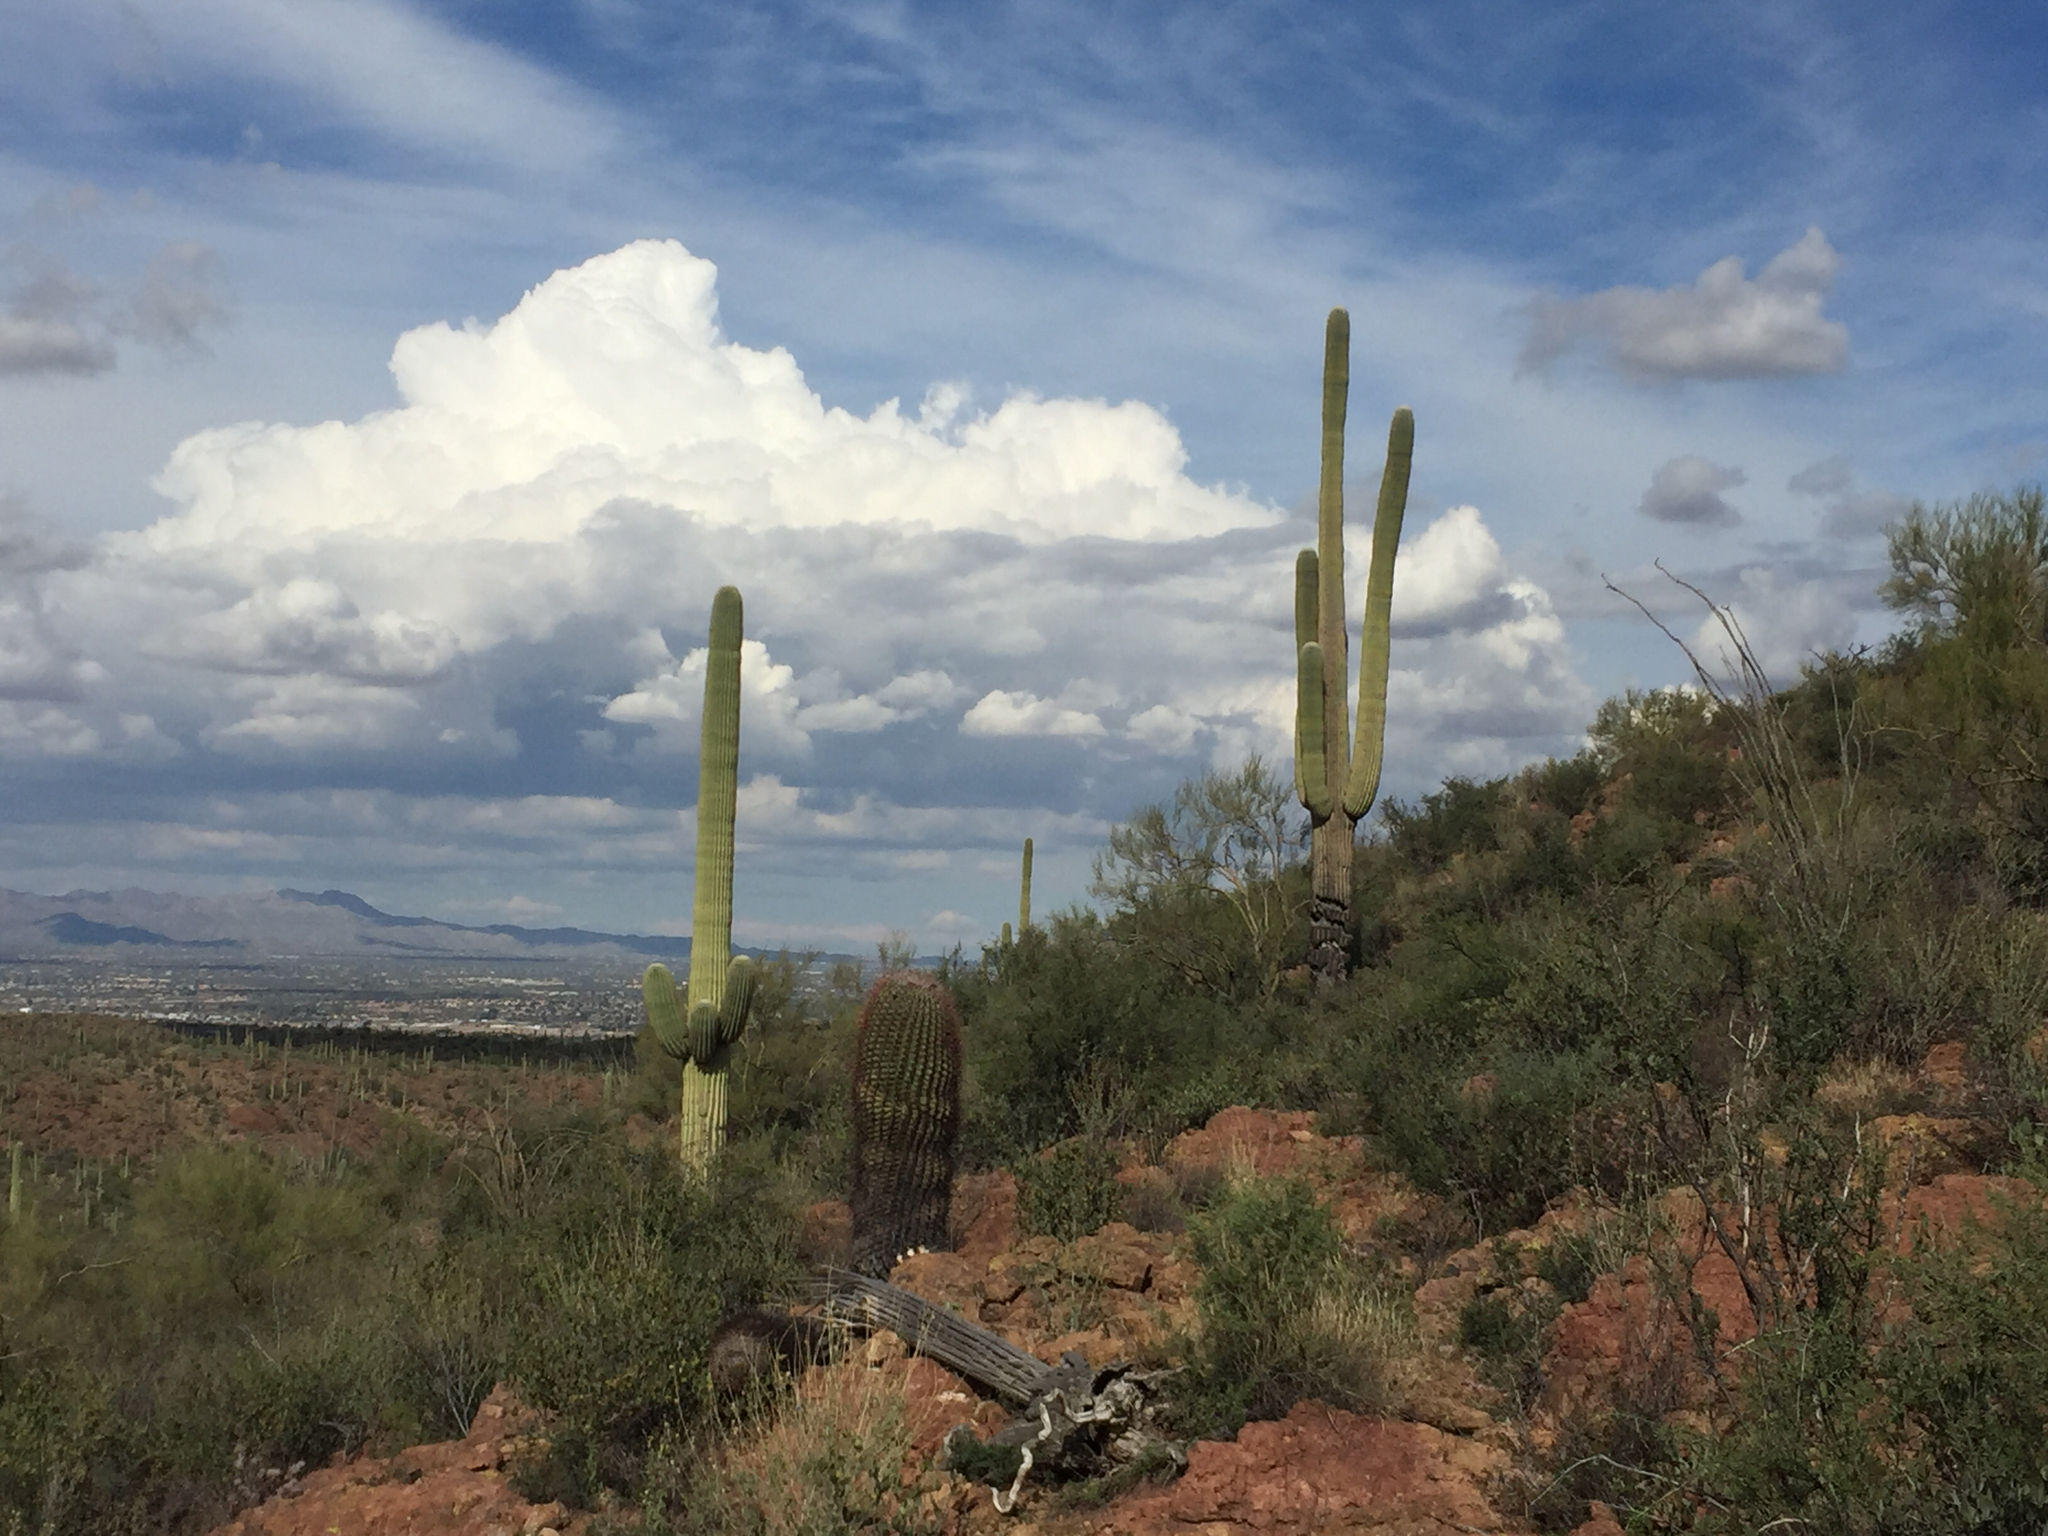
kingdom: Plantae
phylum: Tracheophyta
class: Magnoliopsida
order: Caryophyllales
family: Cactaceae
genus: Carnegiea
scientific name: Carnegiea gigantea
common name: Saguaro
